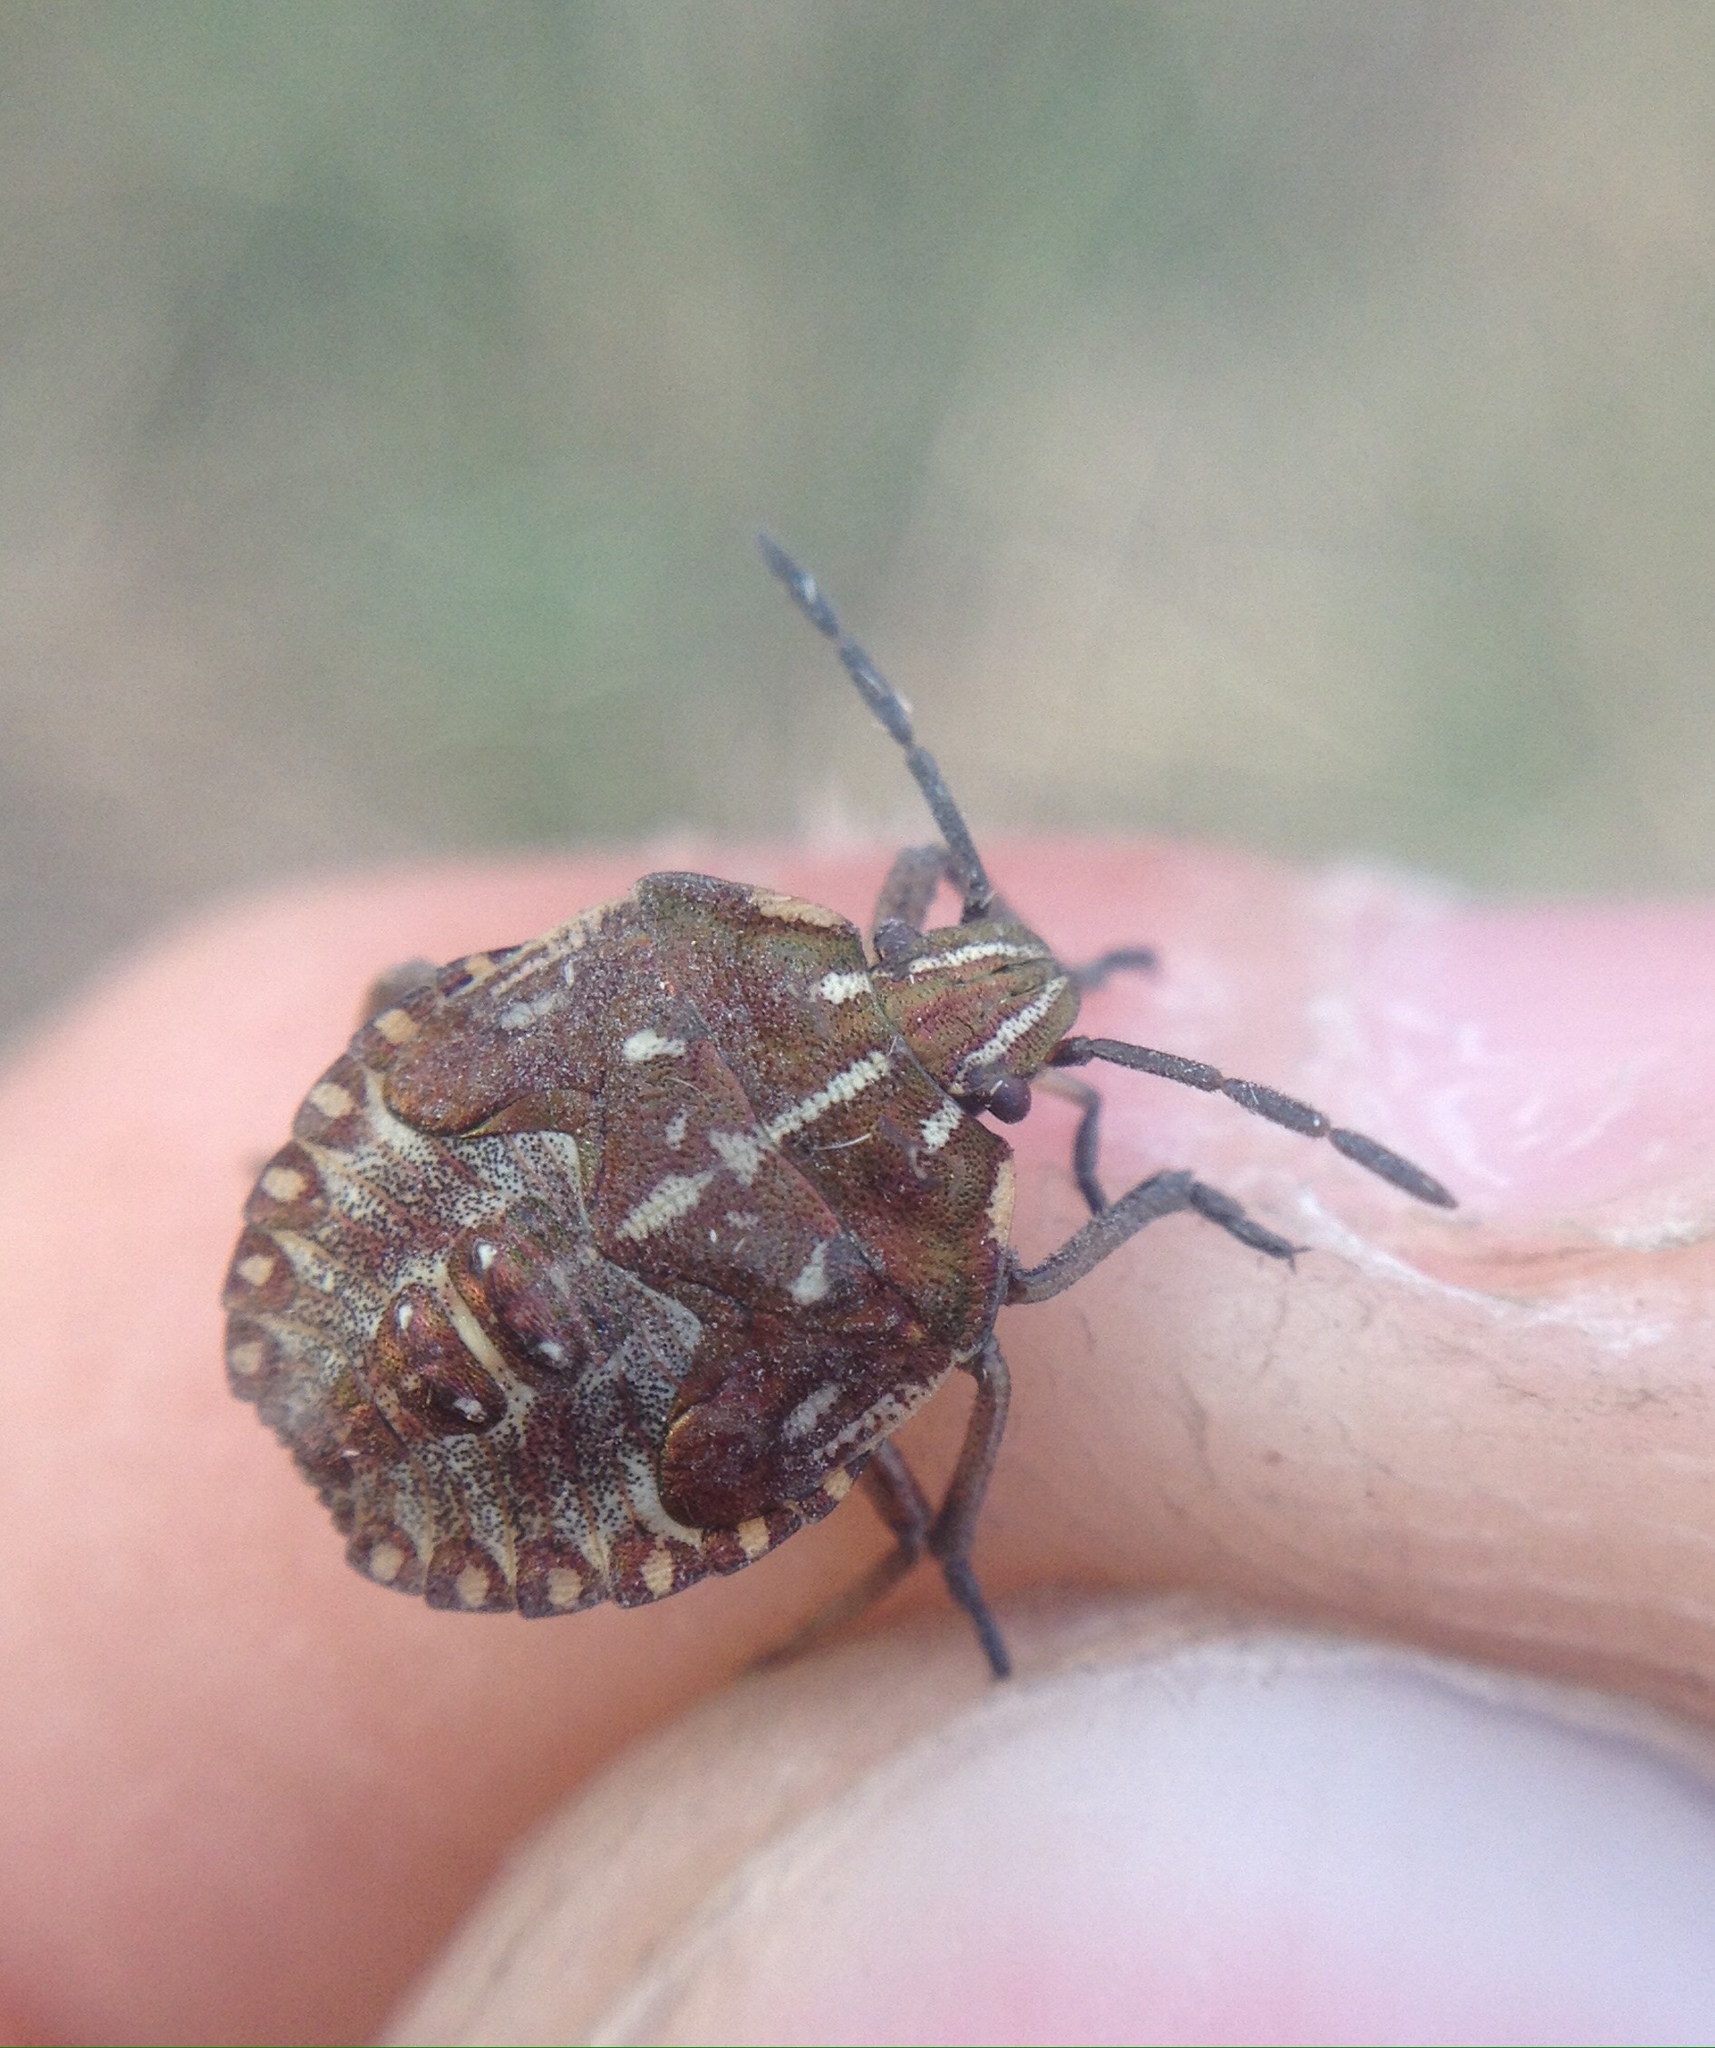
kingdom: Animalia
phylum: Arthropoda
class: Insecta
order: Hemiptera
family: Pentatomidae
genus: Carpocoris
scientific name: Carpocoris purpureipennis
